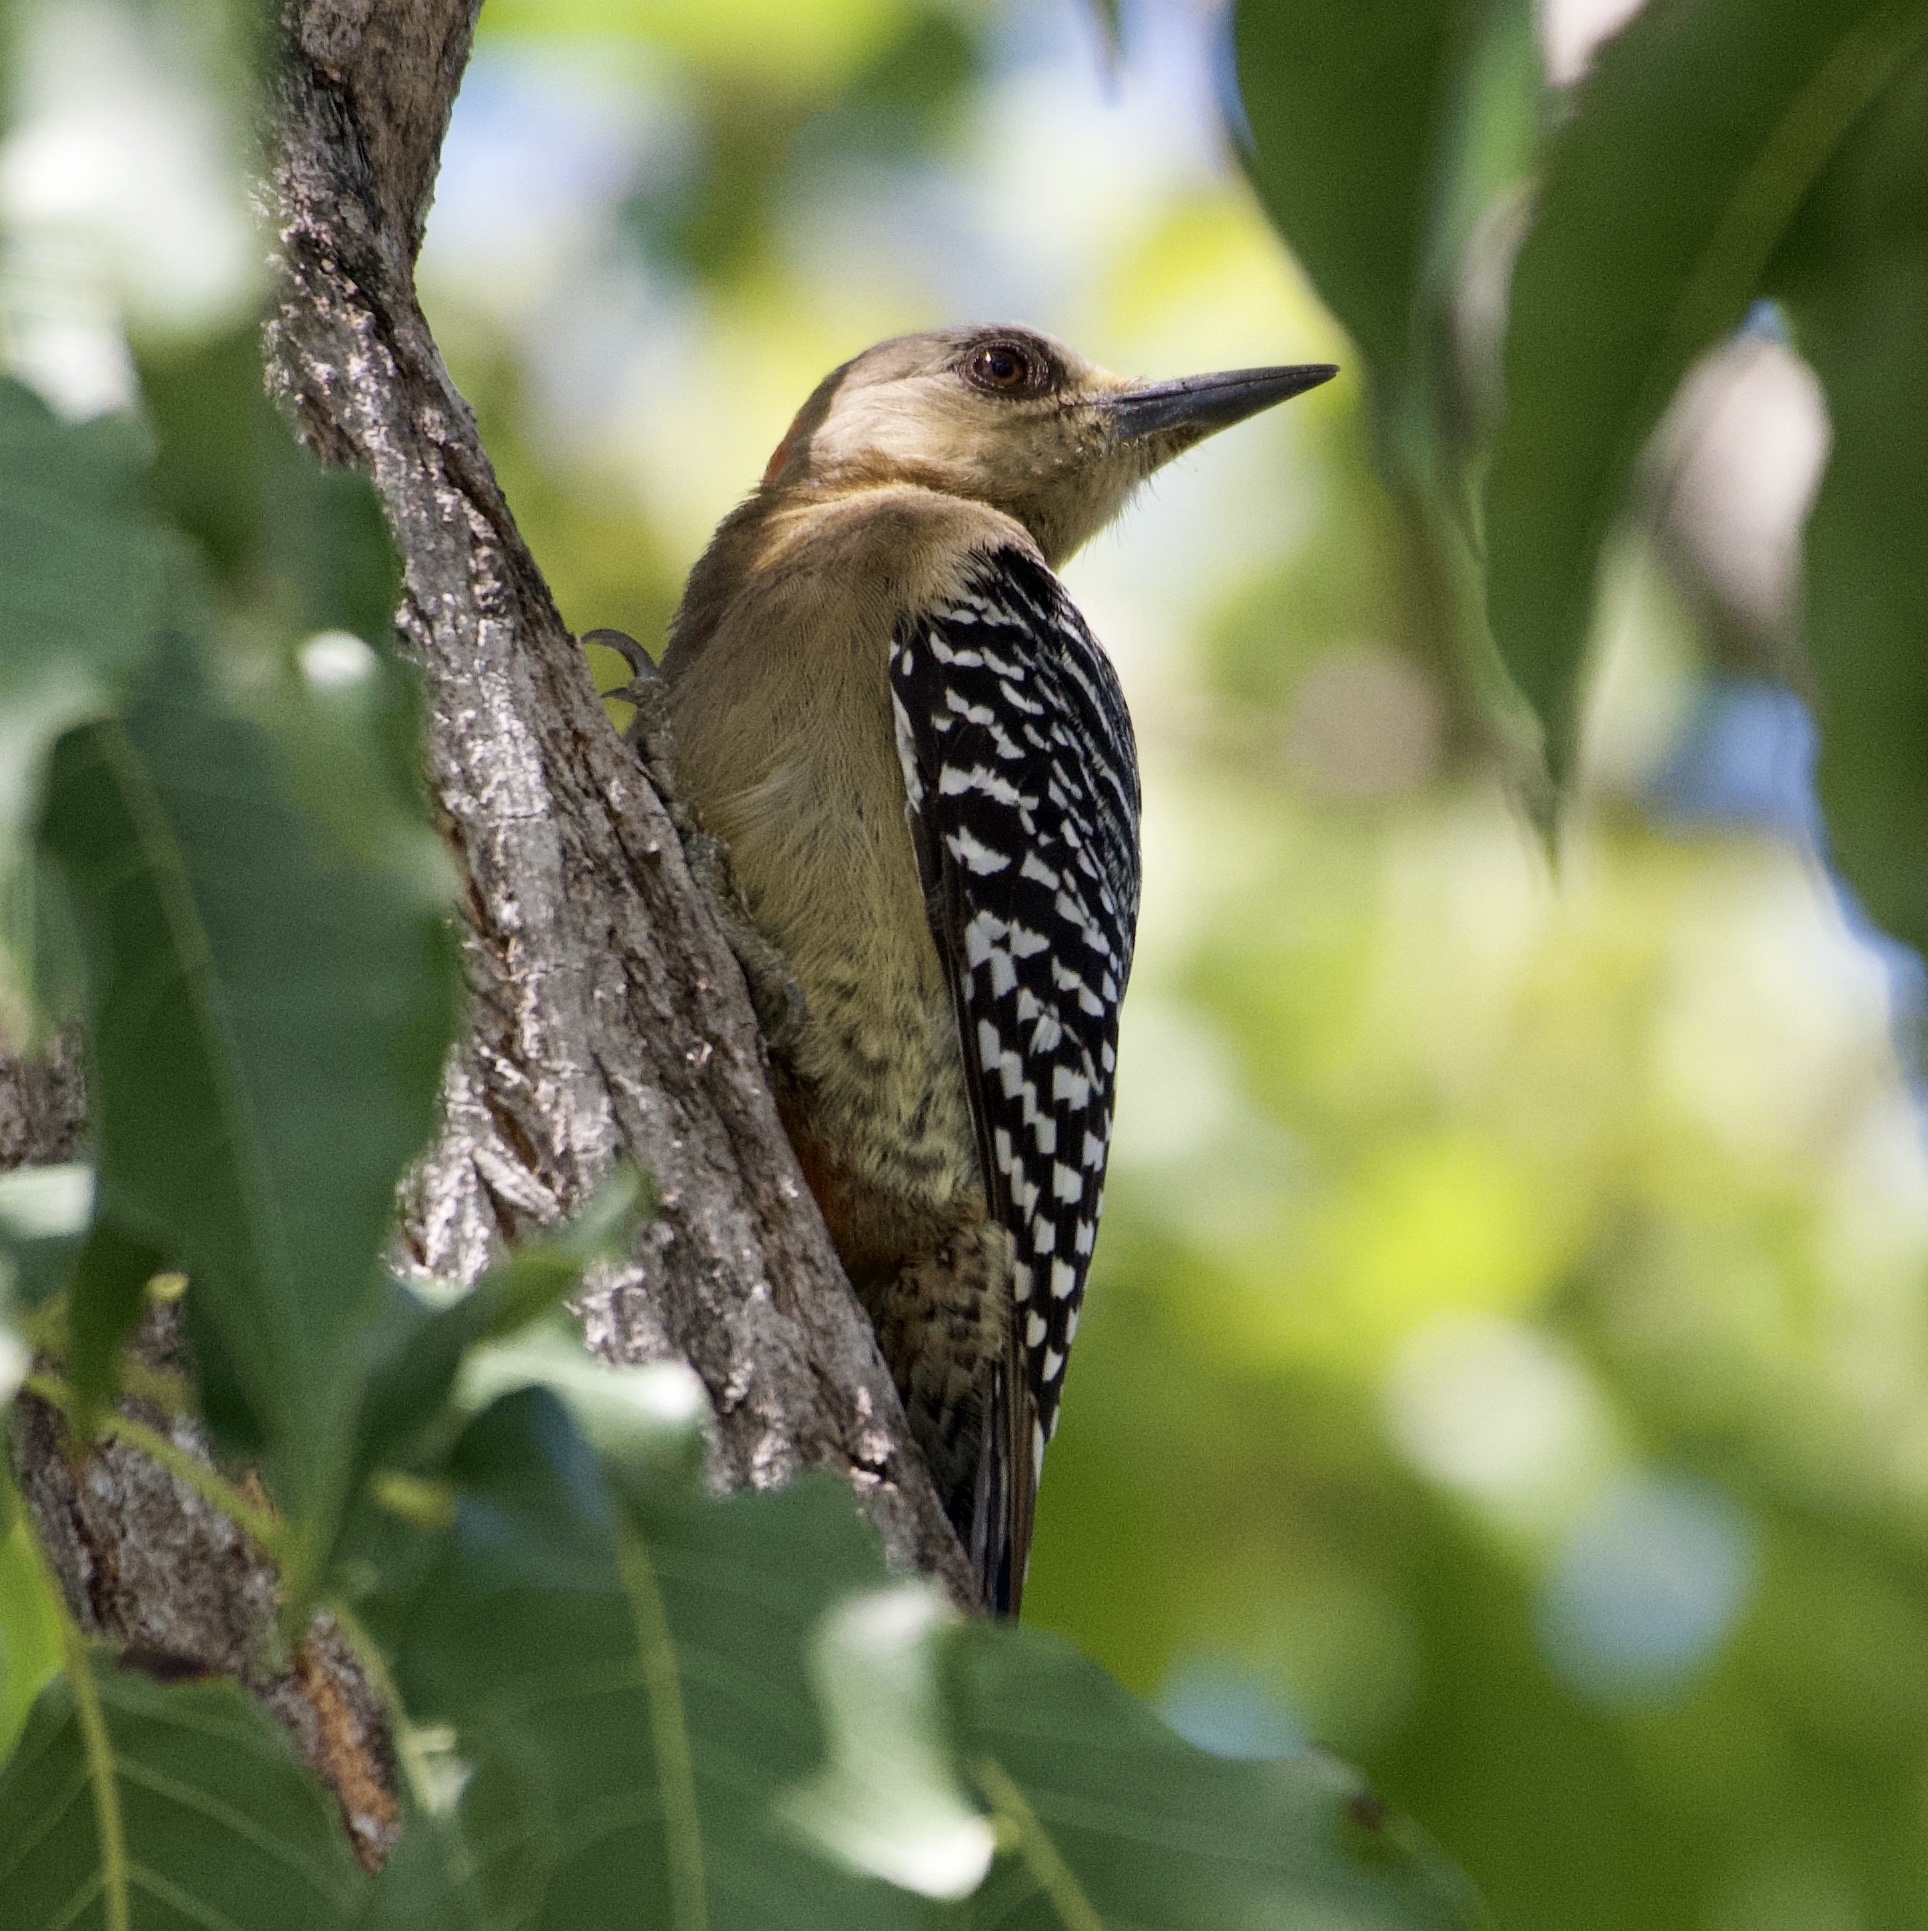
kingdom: Animalia
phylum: Chordata
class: Aves
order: Piciformes
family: Picidae
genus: Melanerpes
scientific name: Melanerpes rubricapillus
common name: Red-crowned woodpecker
